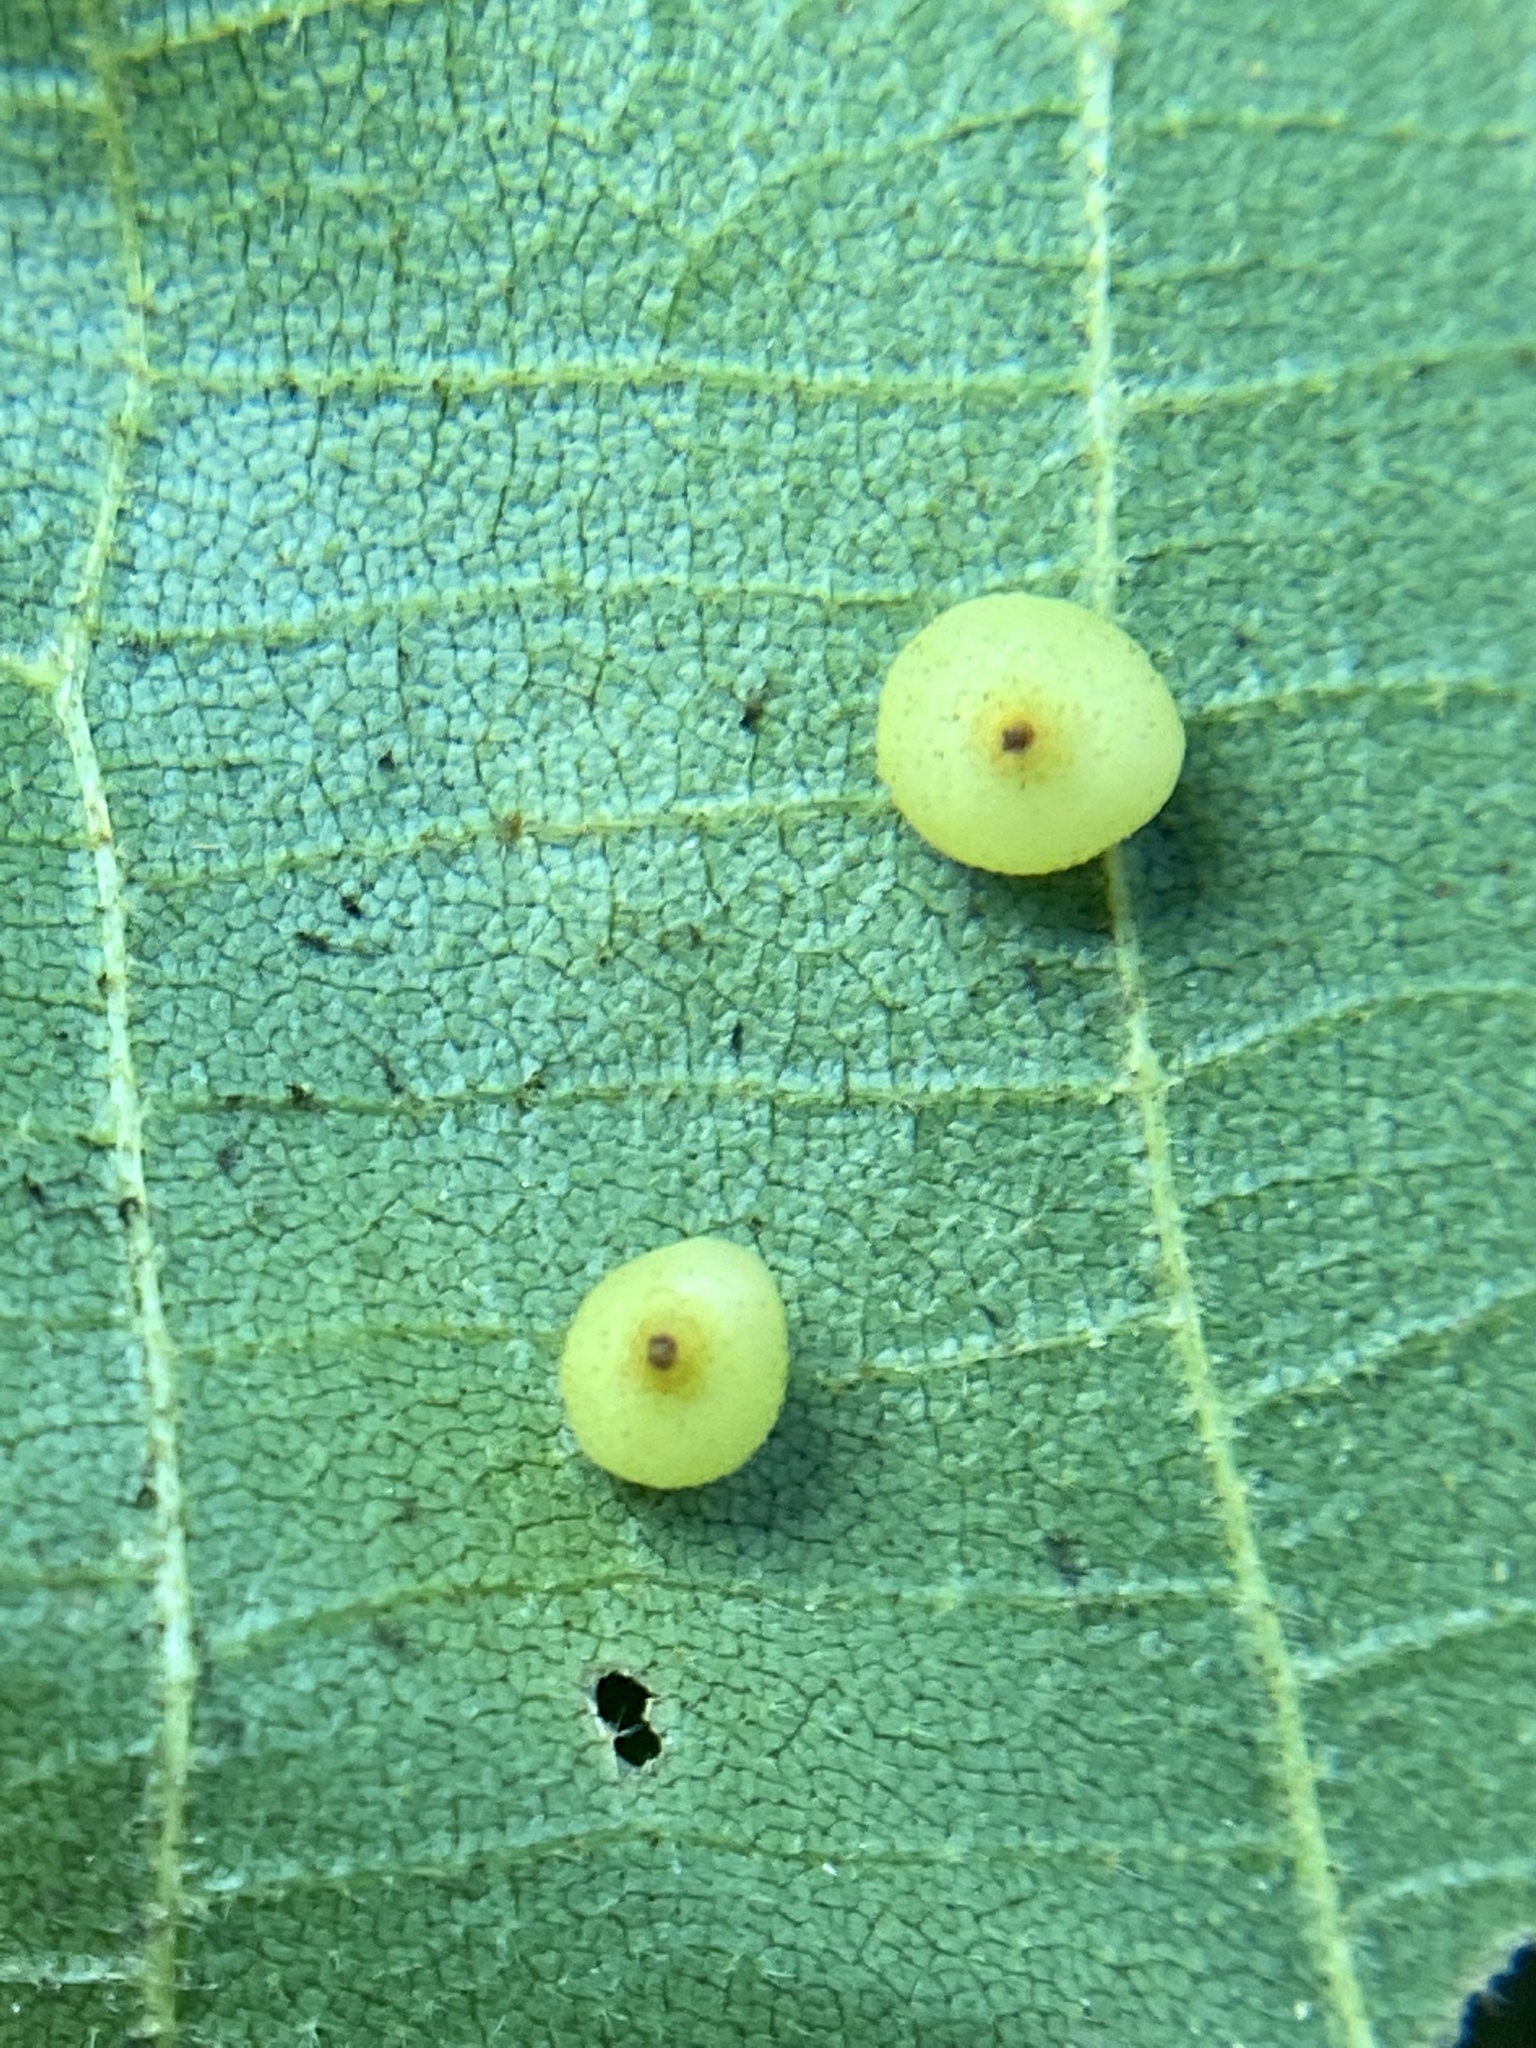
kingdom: Animalia
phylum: Arthropoda
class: Insecta
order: Diptera
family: Cecidomyiidae
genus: Caryomyia
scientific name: Caryomyia caryae
